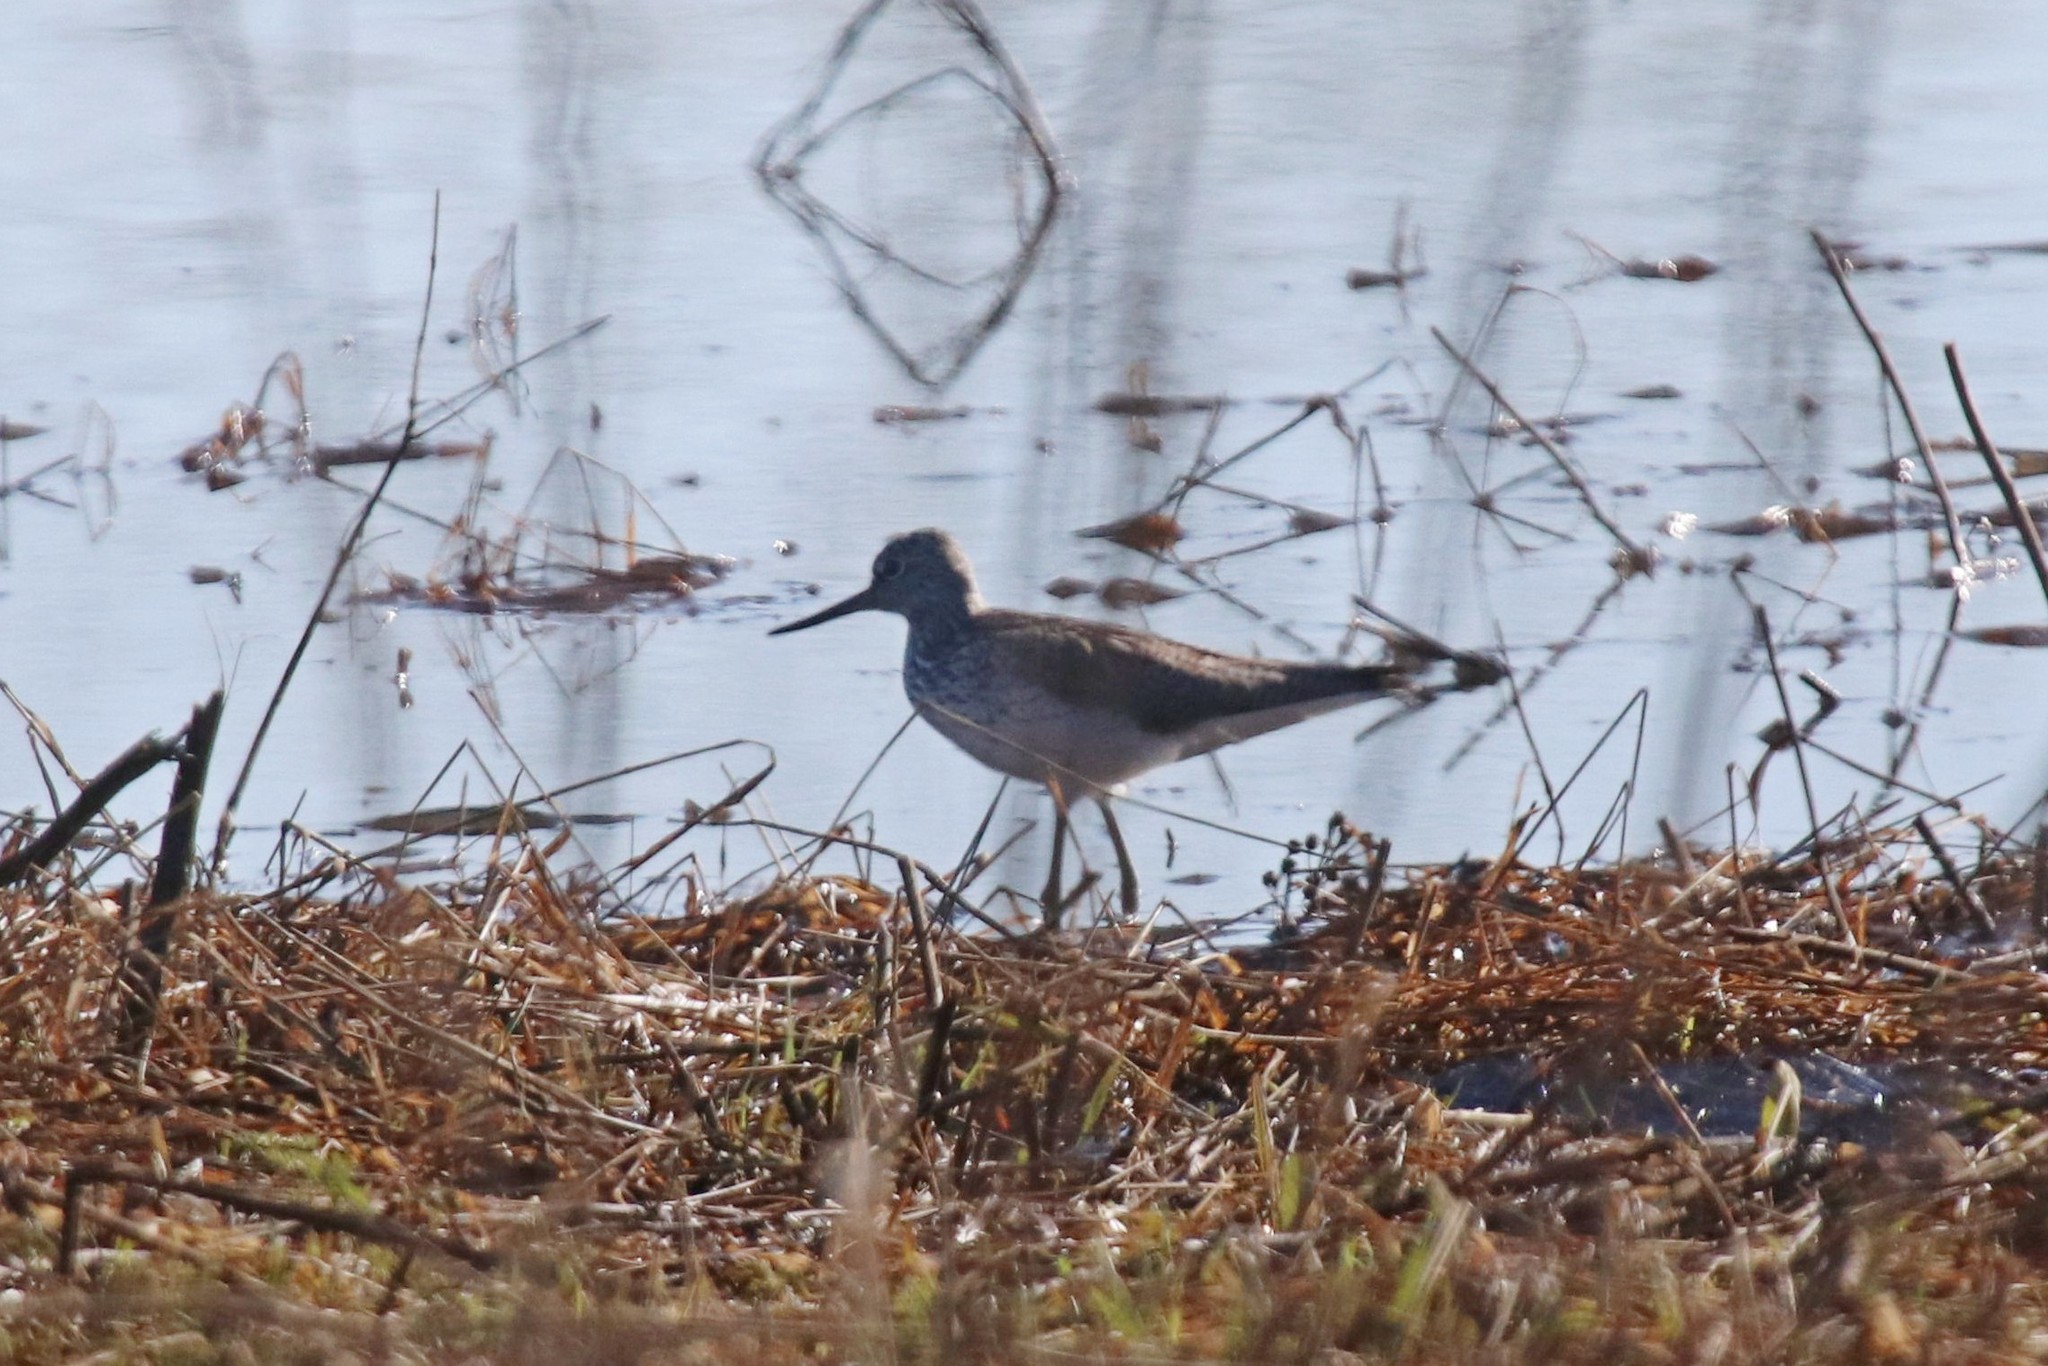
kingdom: Animalia
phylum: Chordata
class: Aves
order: Charadriiformes
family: Scolopacidae
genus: Tringa
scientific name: Tringa nebularia
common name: Common greenshank
